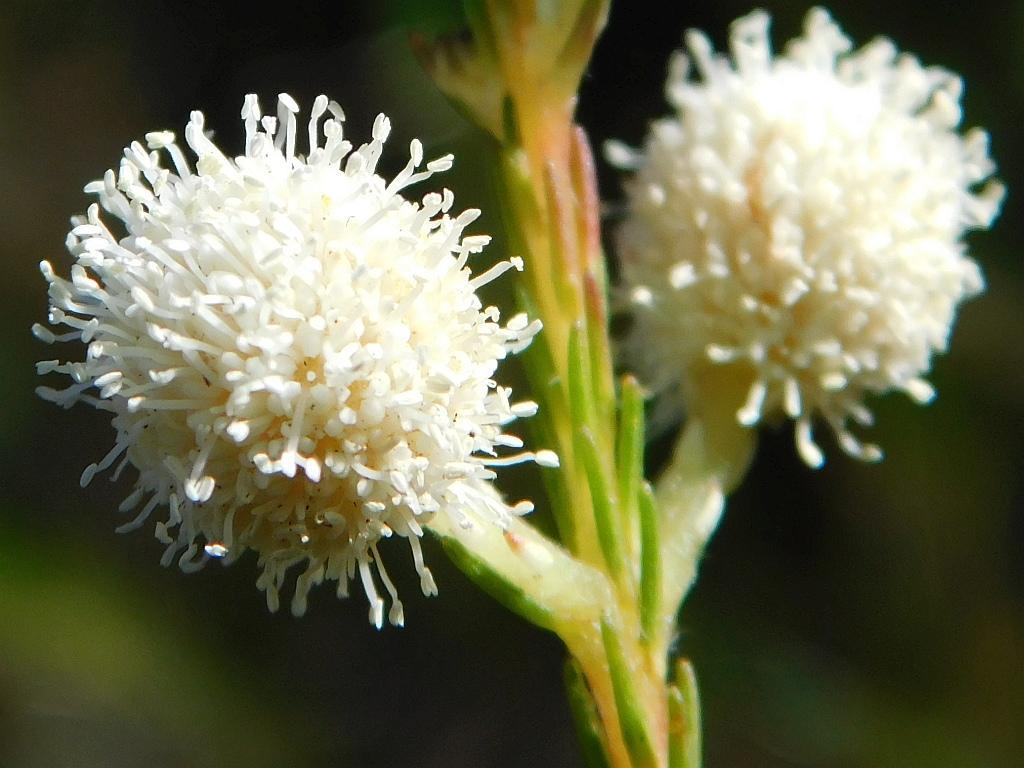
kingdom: Plantae
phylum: Tracheophyta
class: Magnoliopsida
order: Bruniales
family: Bruniaceae
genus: Berzelia
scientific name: Berzelia lanuginosa
